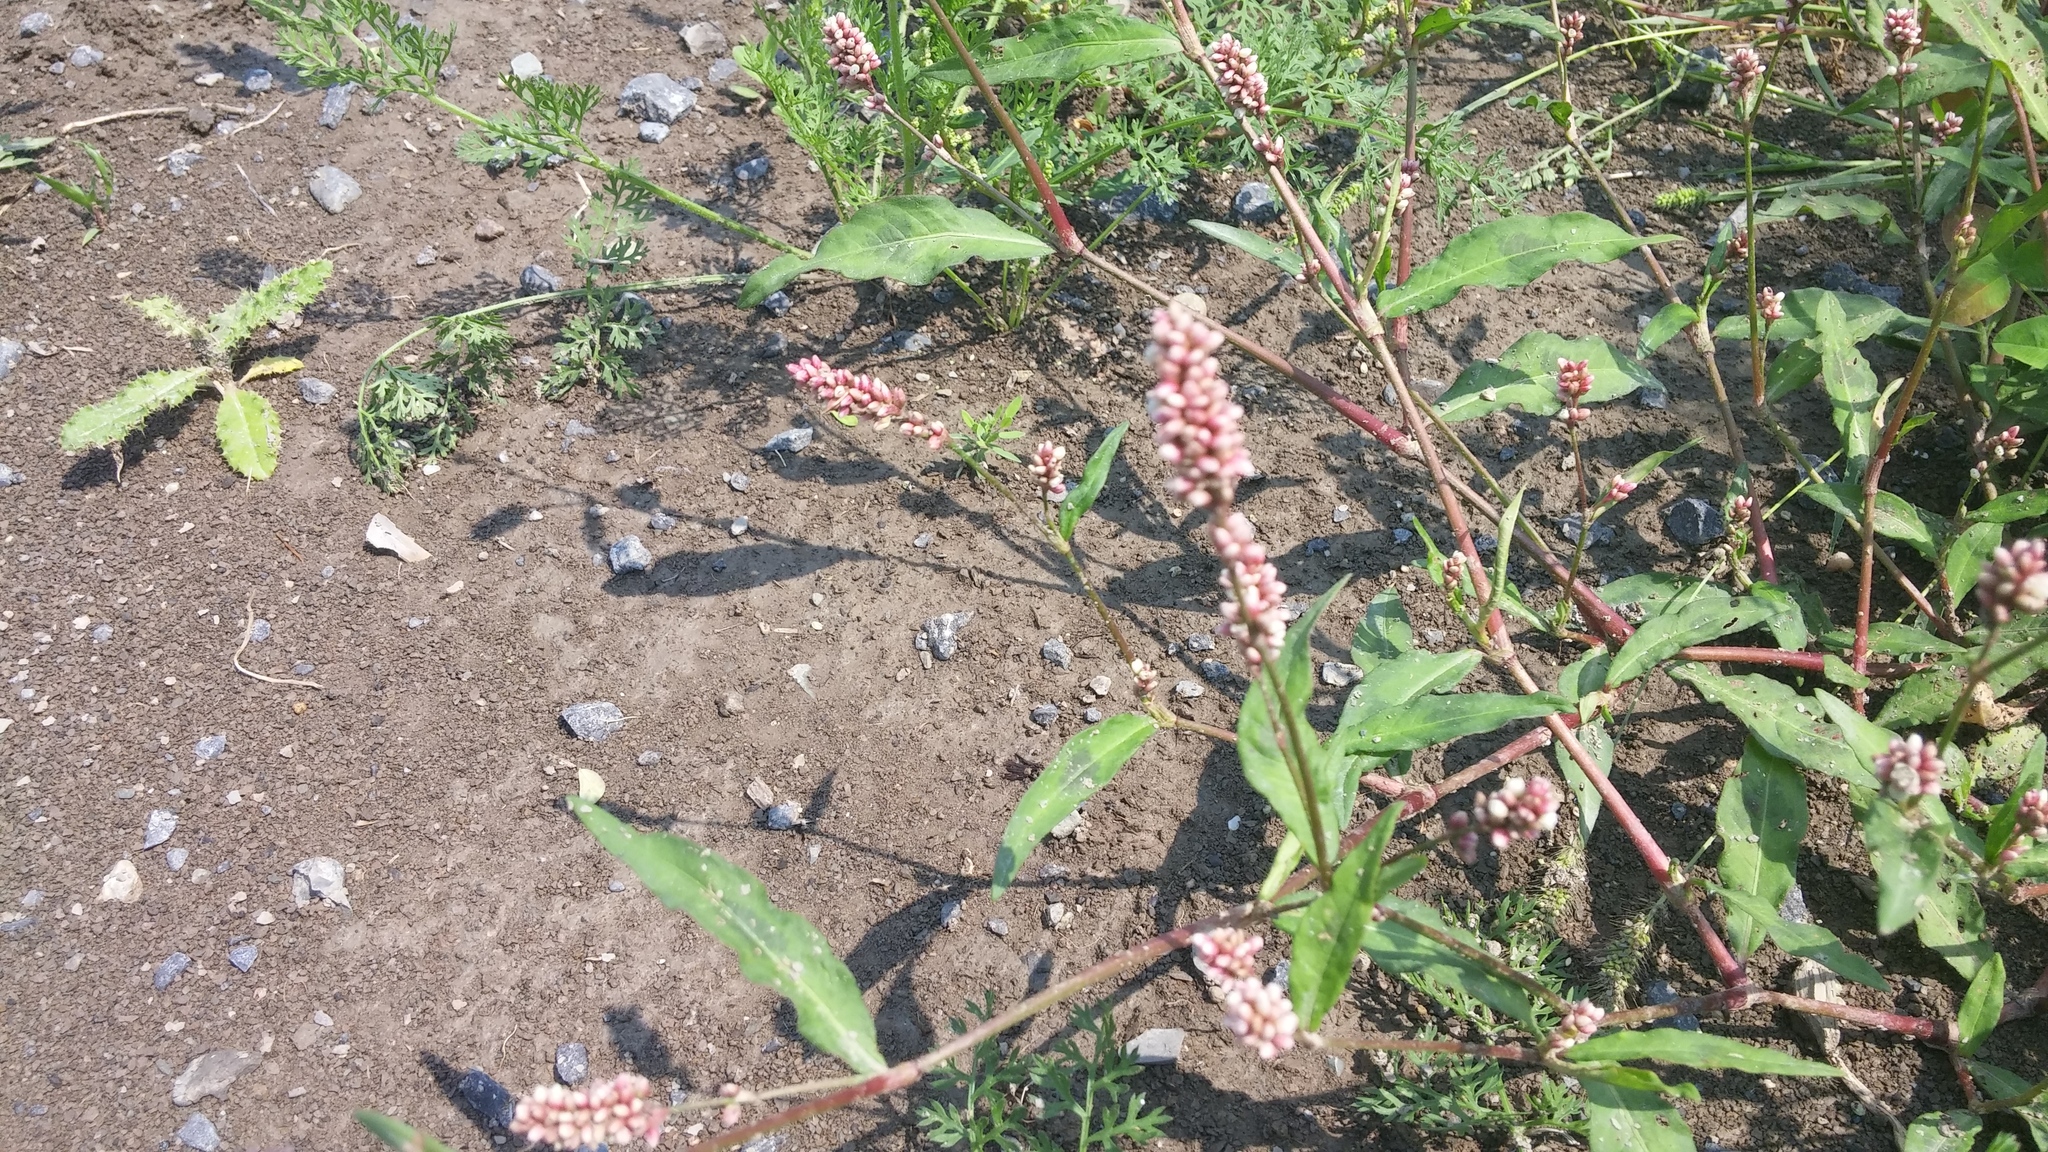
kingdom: Plantae
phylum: Tracheophyta
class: Magnoliopsida
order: Caryophyllales
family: Polygonaceae
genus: Persicaria
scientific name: Persicaria maculosa
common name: Redshank
